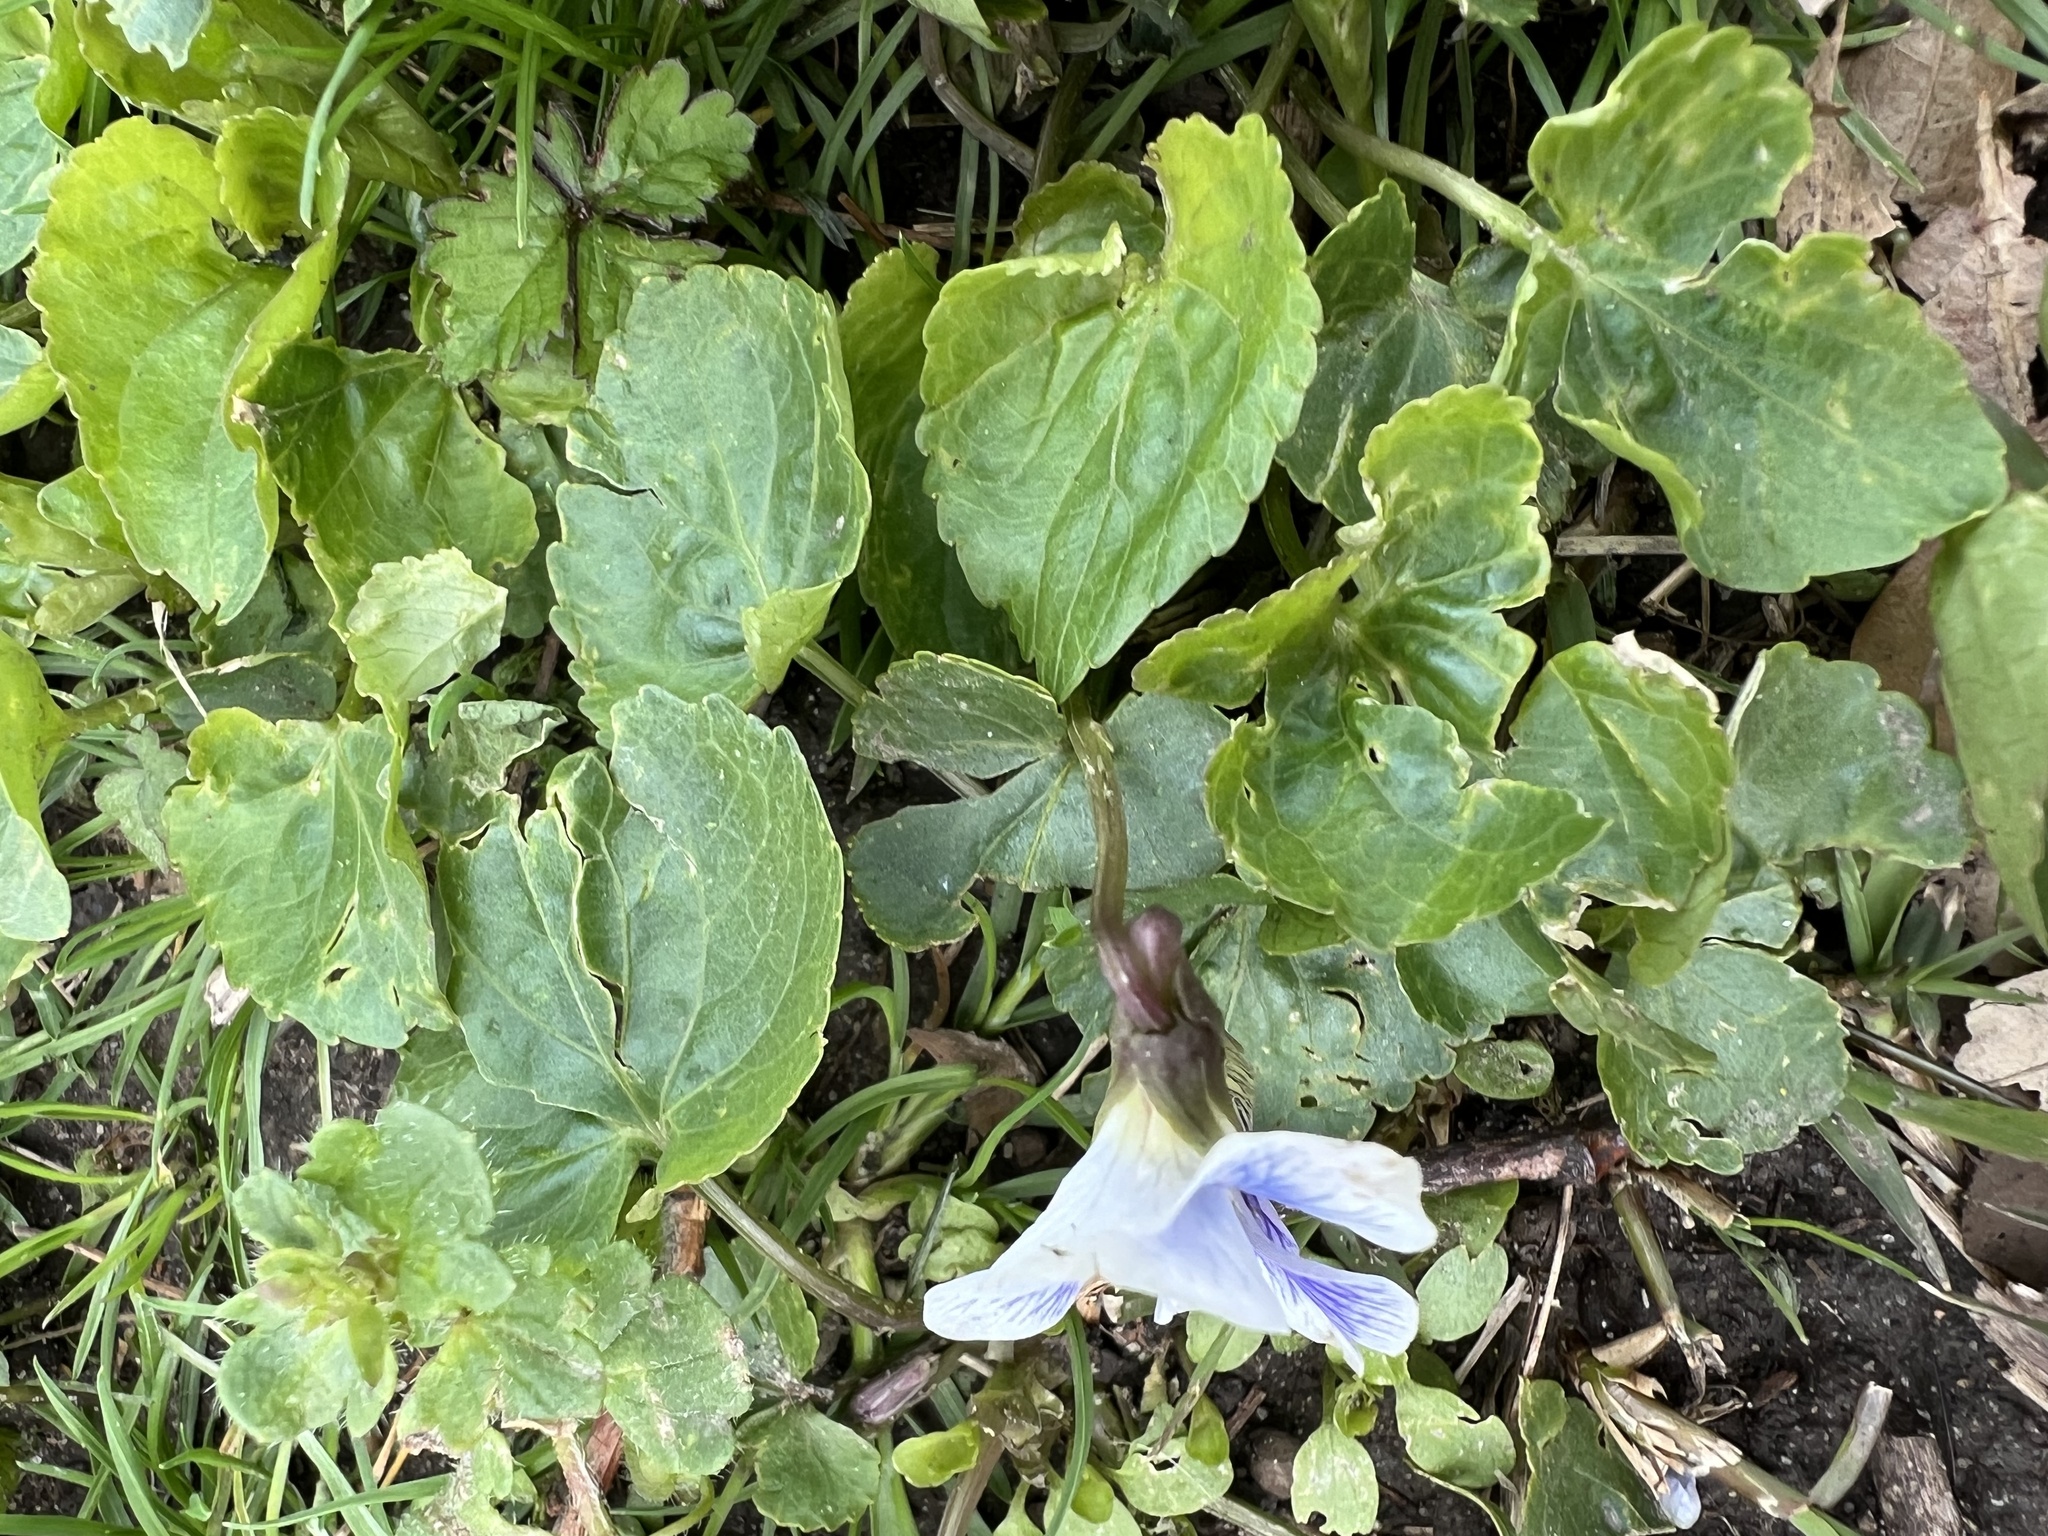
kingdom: Plantae
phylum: Tracheophyta
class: Magnoliopsida
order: Malpighiales
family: Violaceae
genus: Viola
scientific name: Viola sororia
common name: Dooryard violet
